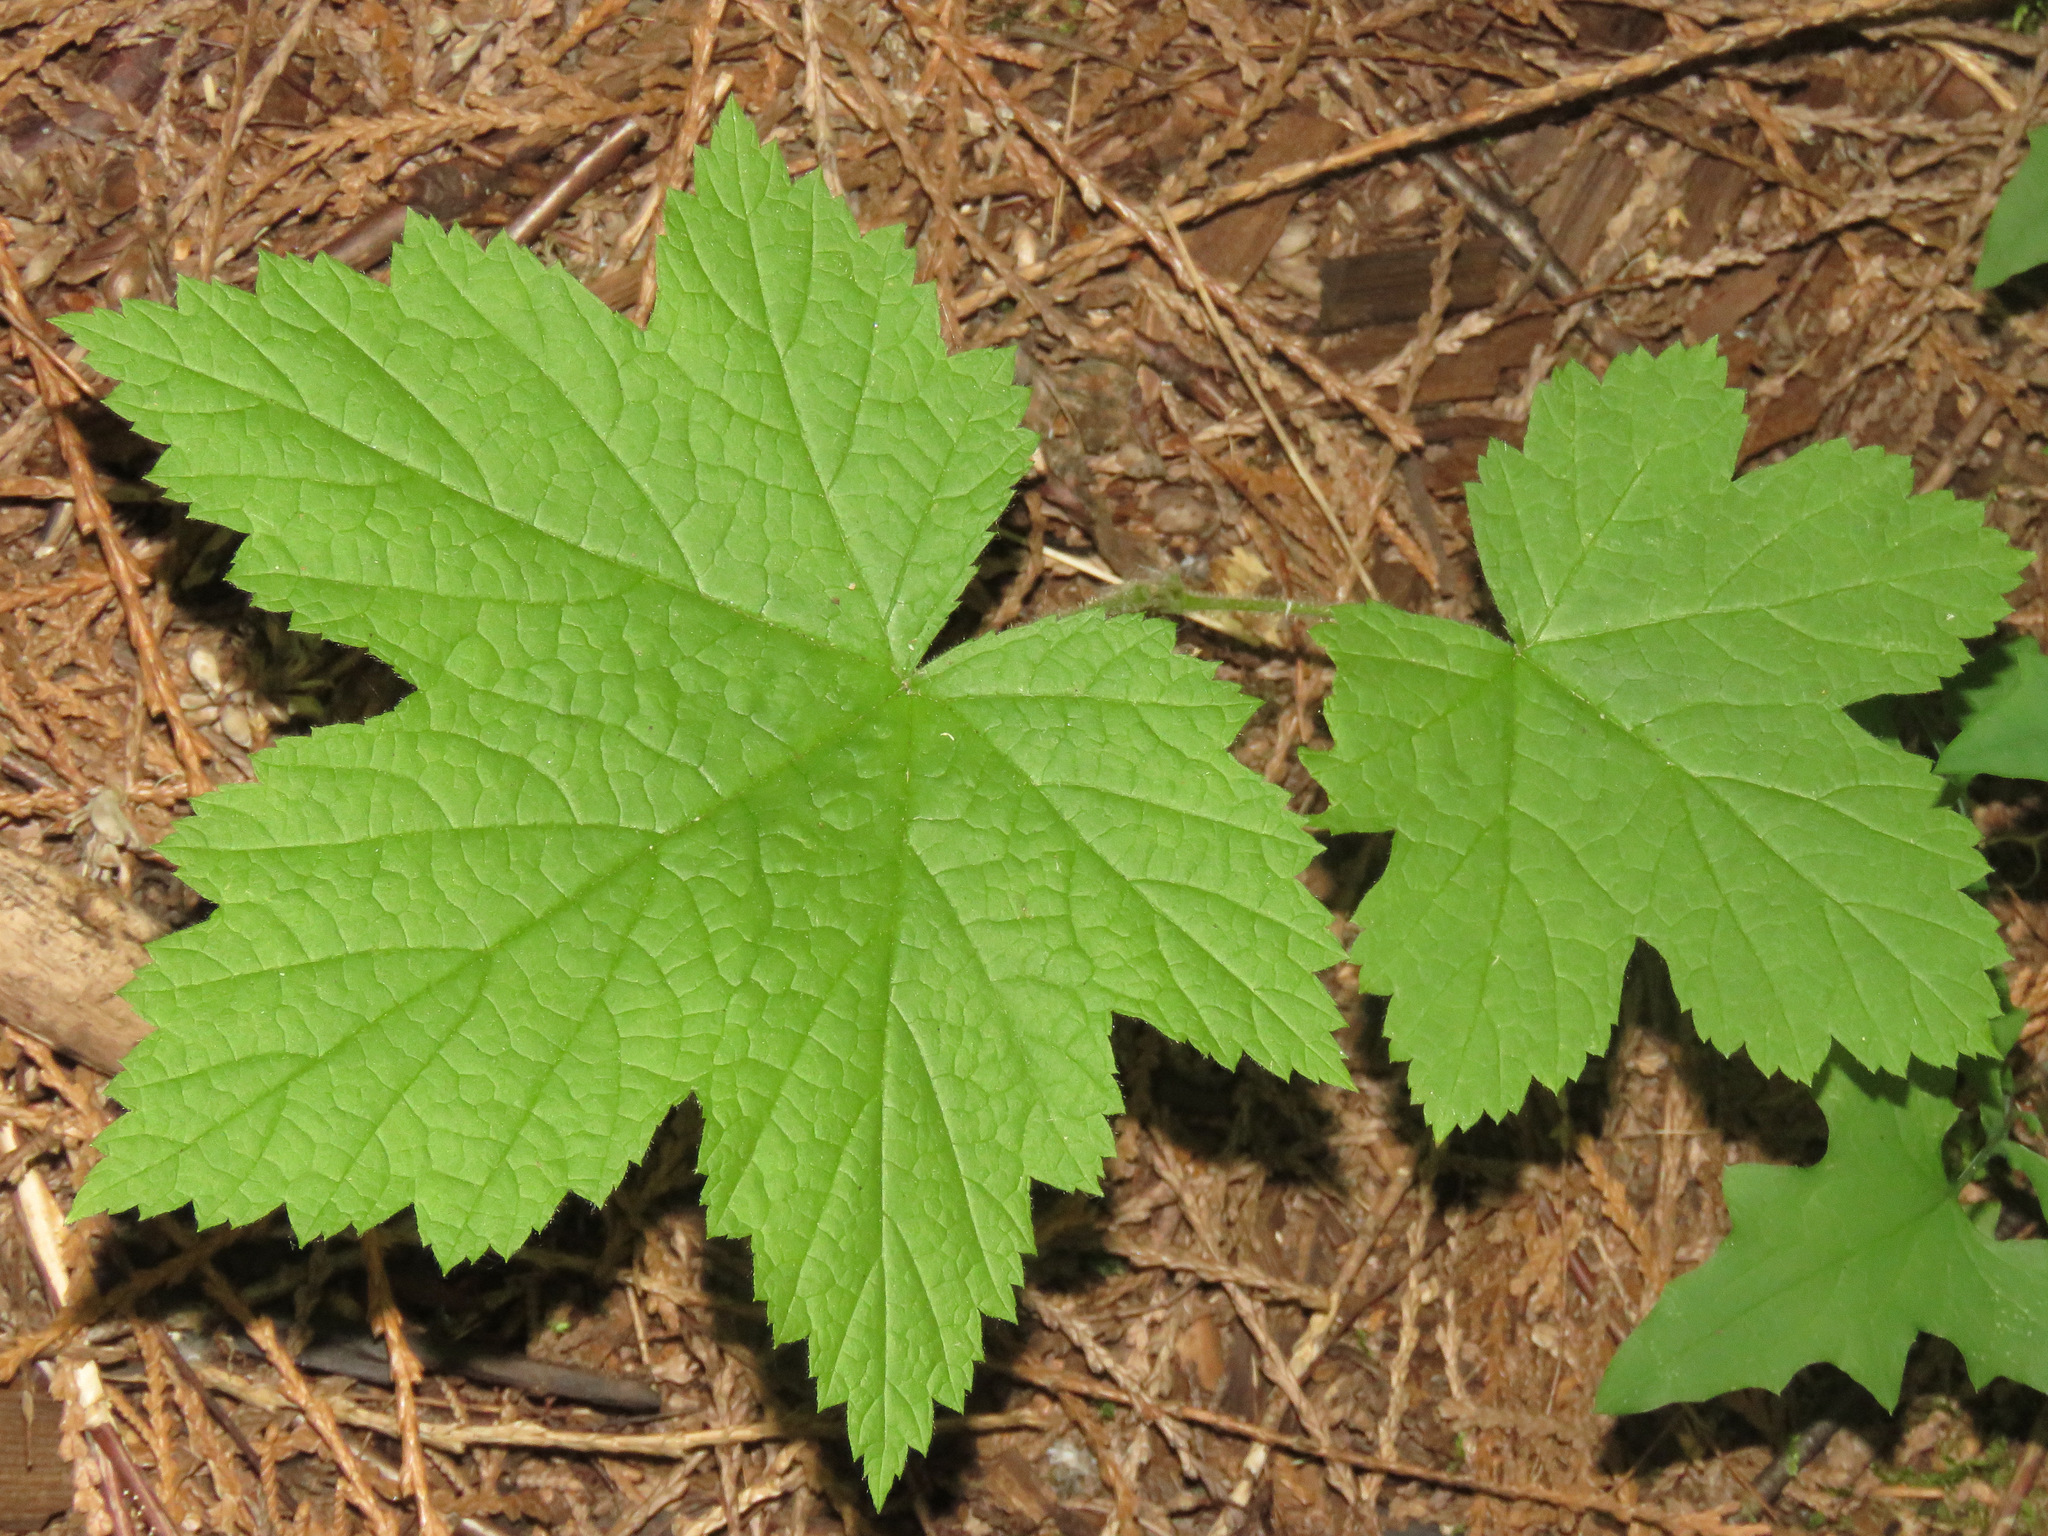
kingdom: Plantae
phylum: Tracheophyta
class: Magnoliopsida
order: Rosales
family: Rosaceae
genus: Rubus
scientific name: Rubus parviflorus
